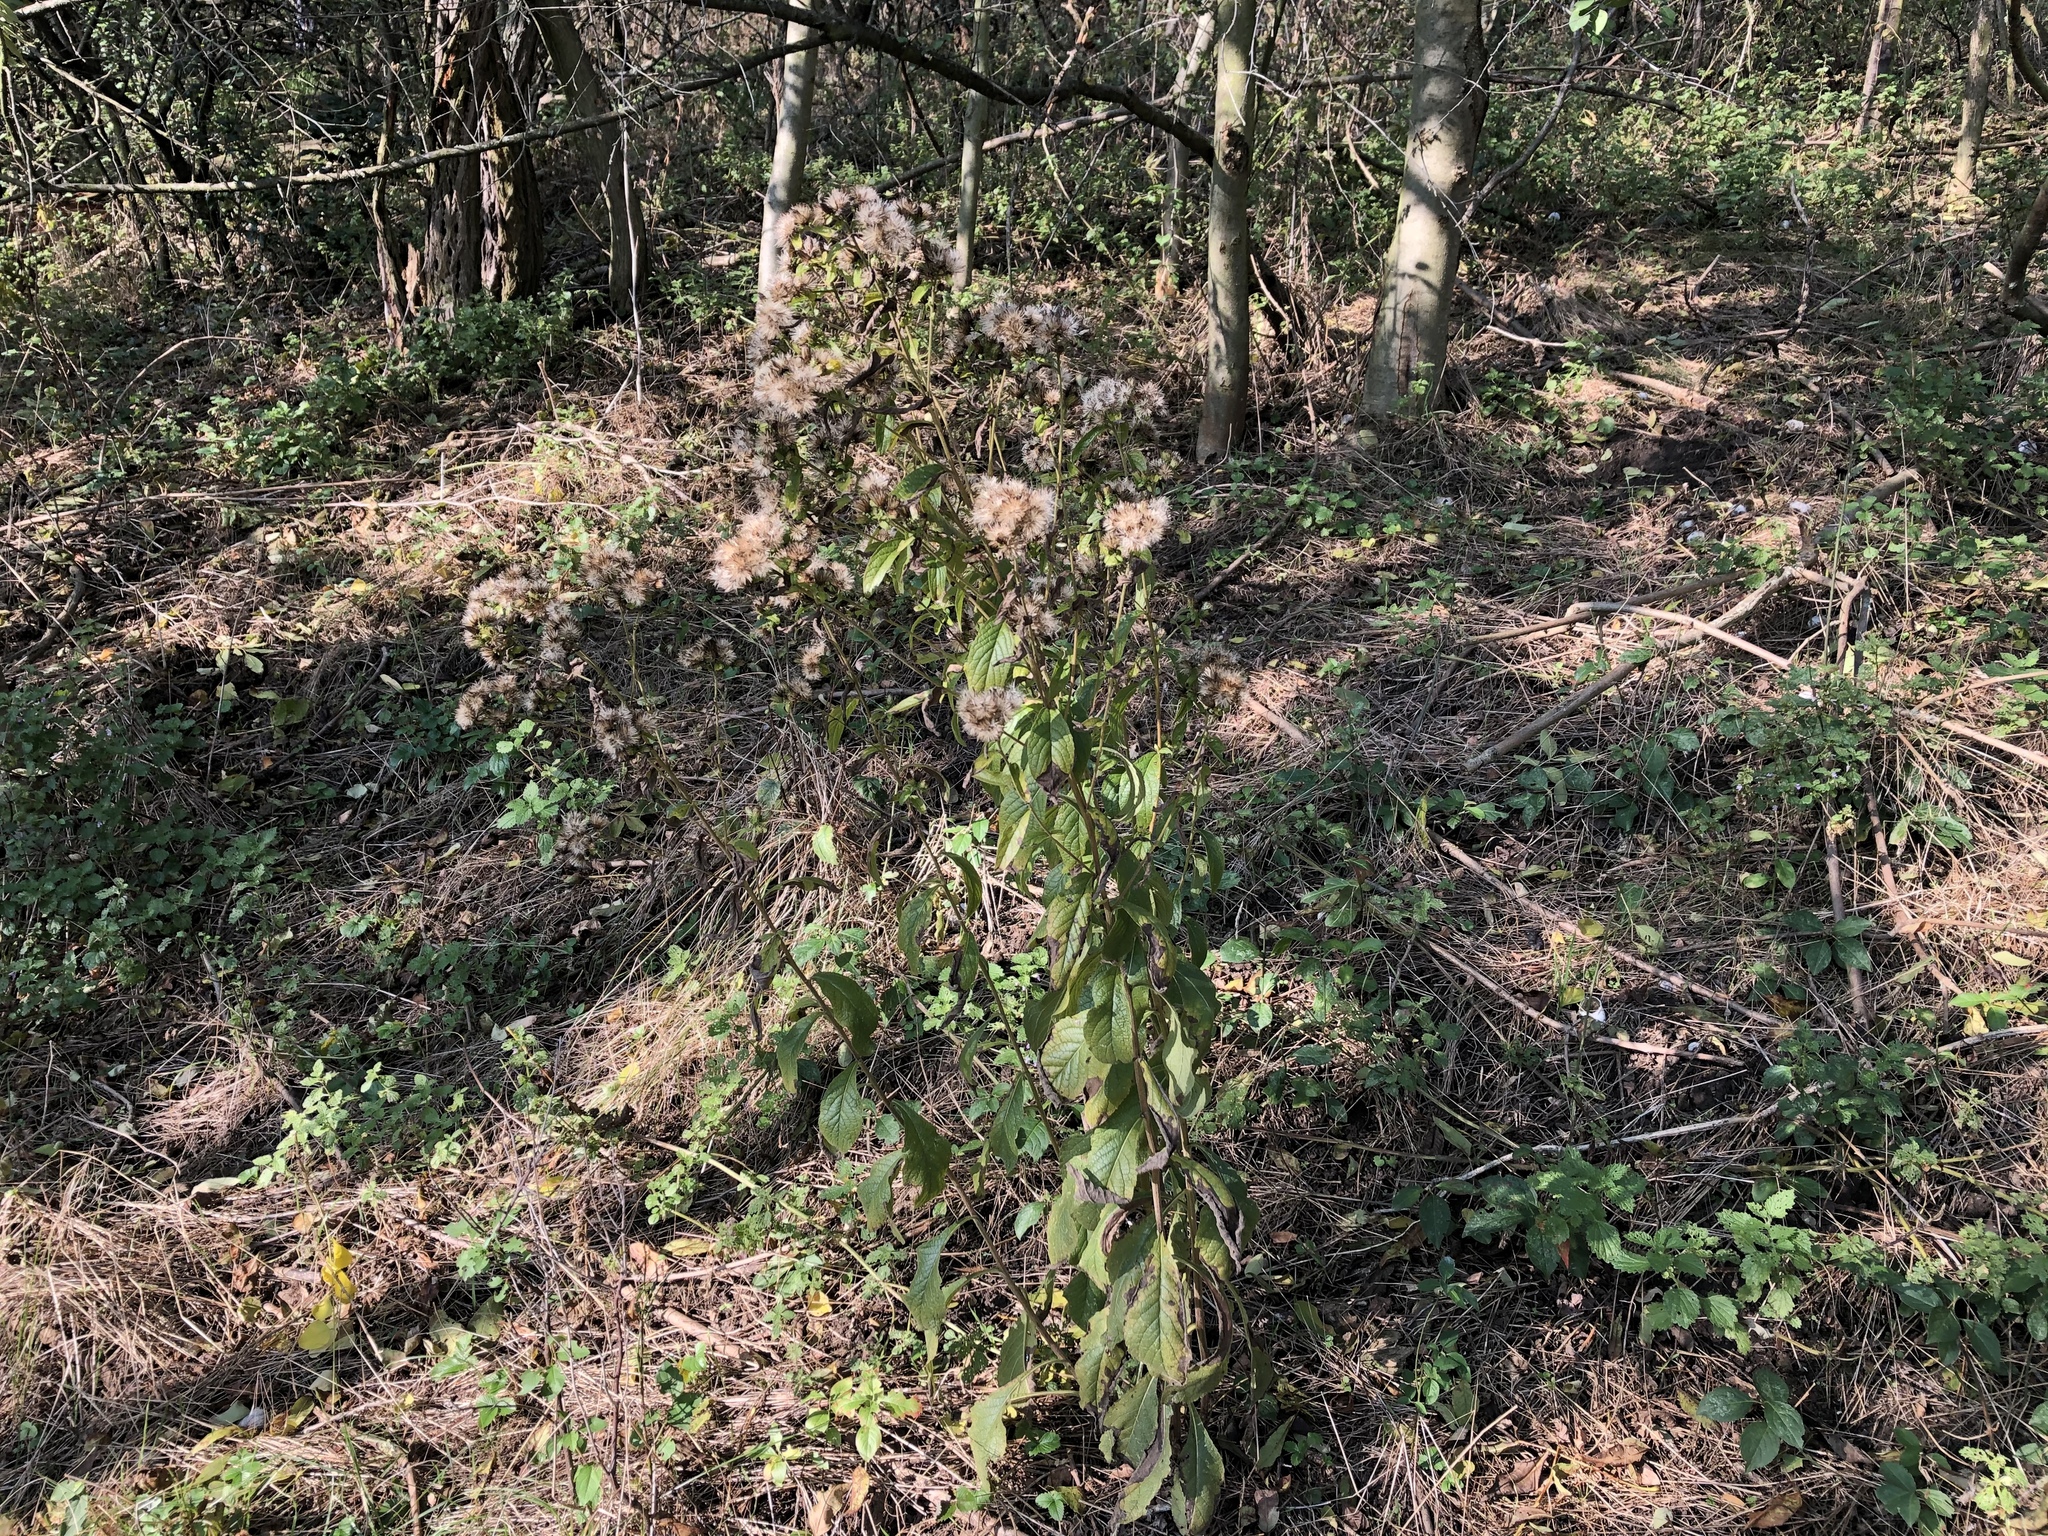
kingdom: Plantae
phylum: Tracheophyta
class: Magnoliopsida
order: Asterales
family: Asteraceae
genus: Pentanema
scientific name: Pentanema squarrosum
